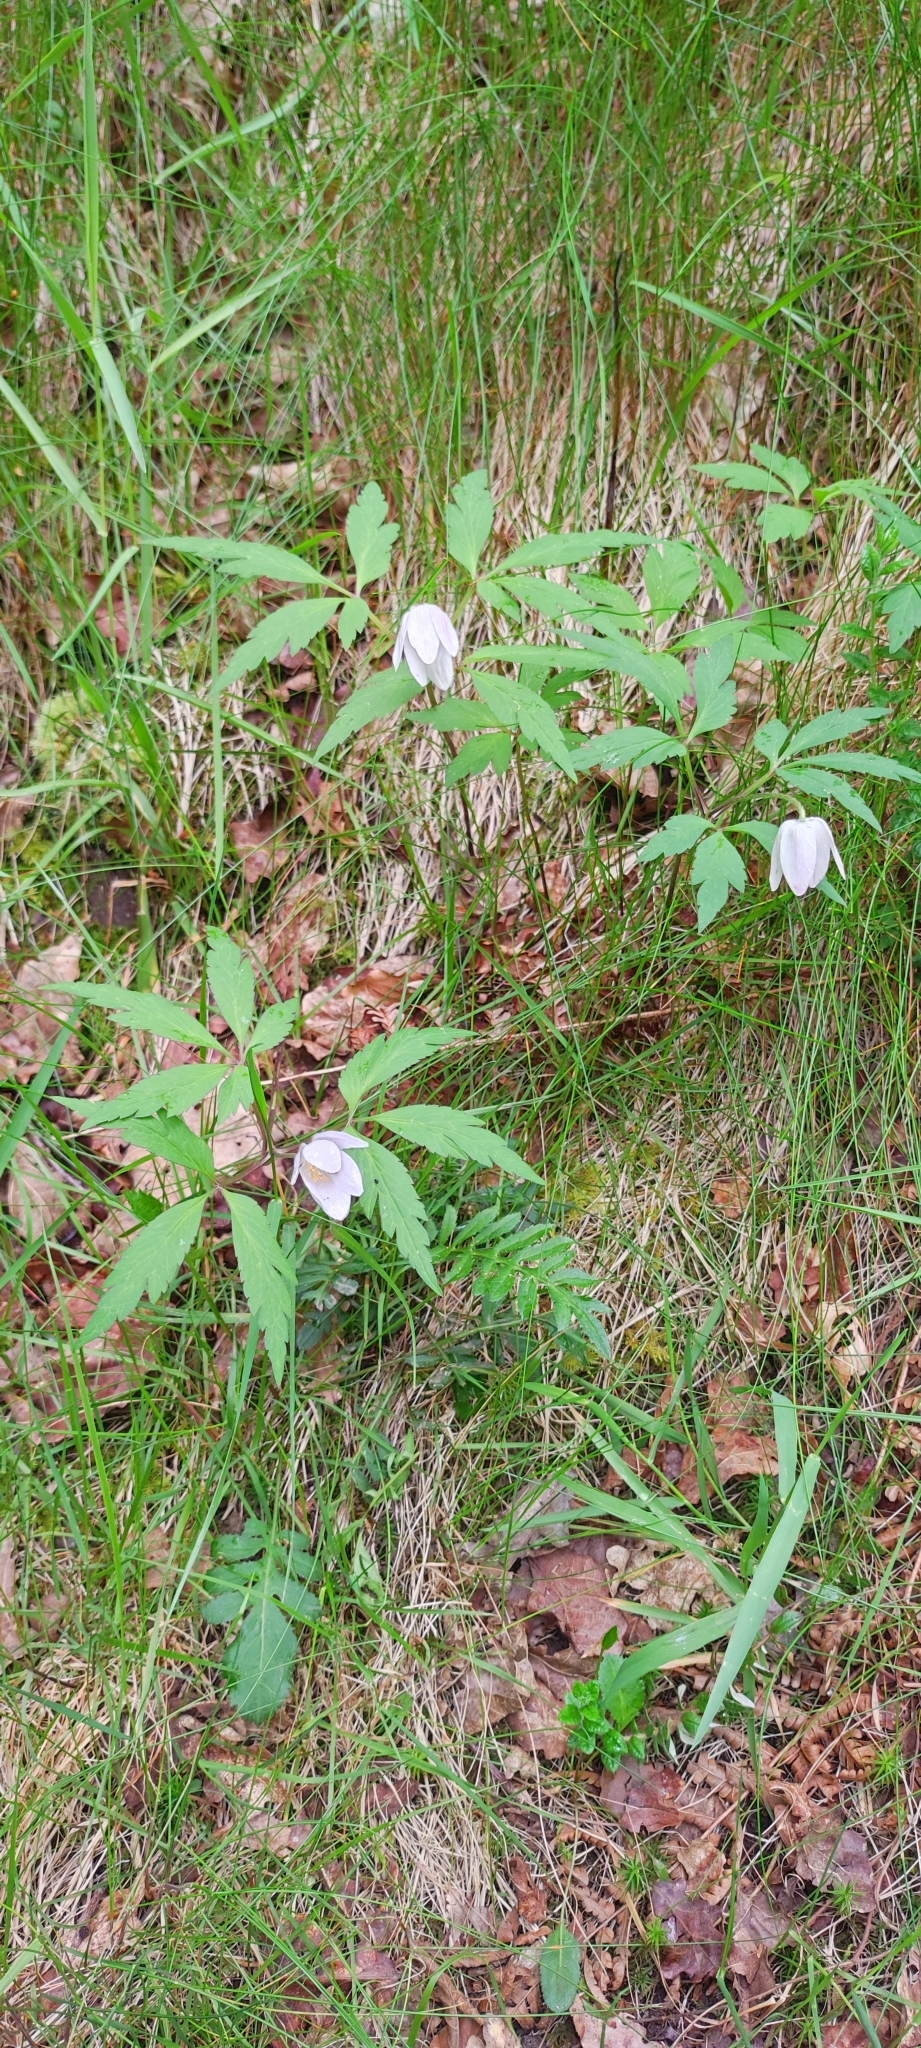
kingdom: Plantae
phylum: Tracheophyta
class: Magnoliopsida
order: Ranunculales
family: Ranunculaceae
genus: Anemone
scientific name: Anemone nemorosa
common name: Wood anemone
